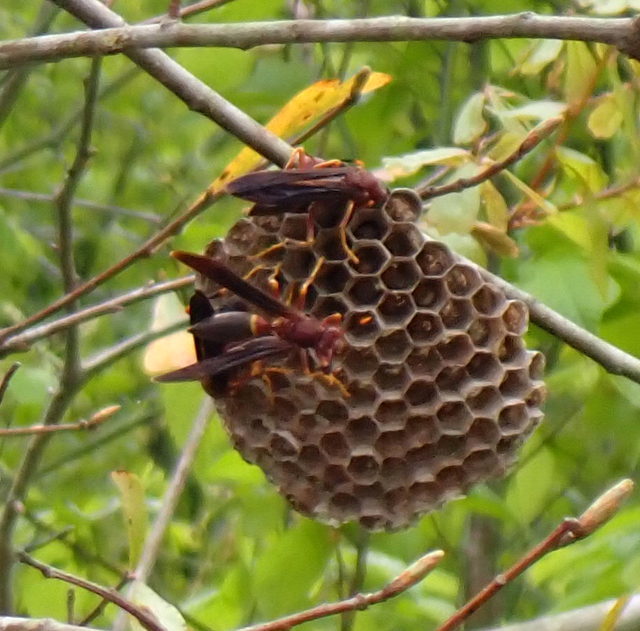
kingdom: Animalia
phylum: Arthropoda
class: Insecta
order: Hymenoptera
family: Eumenidae
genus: Polistes
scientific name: Polistes annularis
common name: Ringed paper wasp
